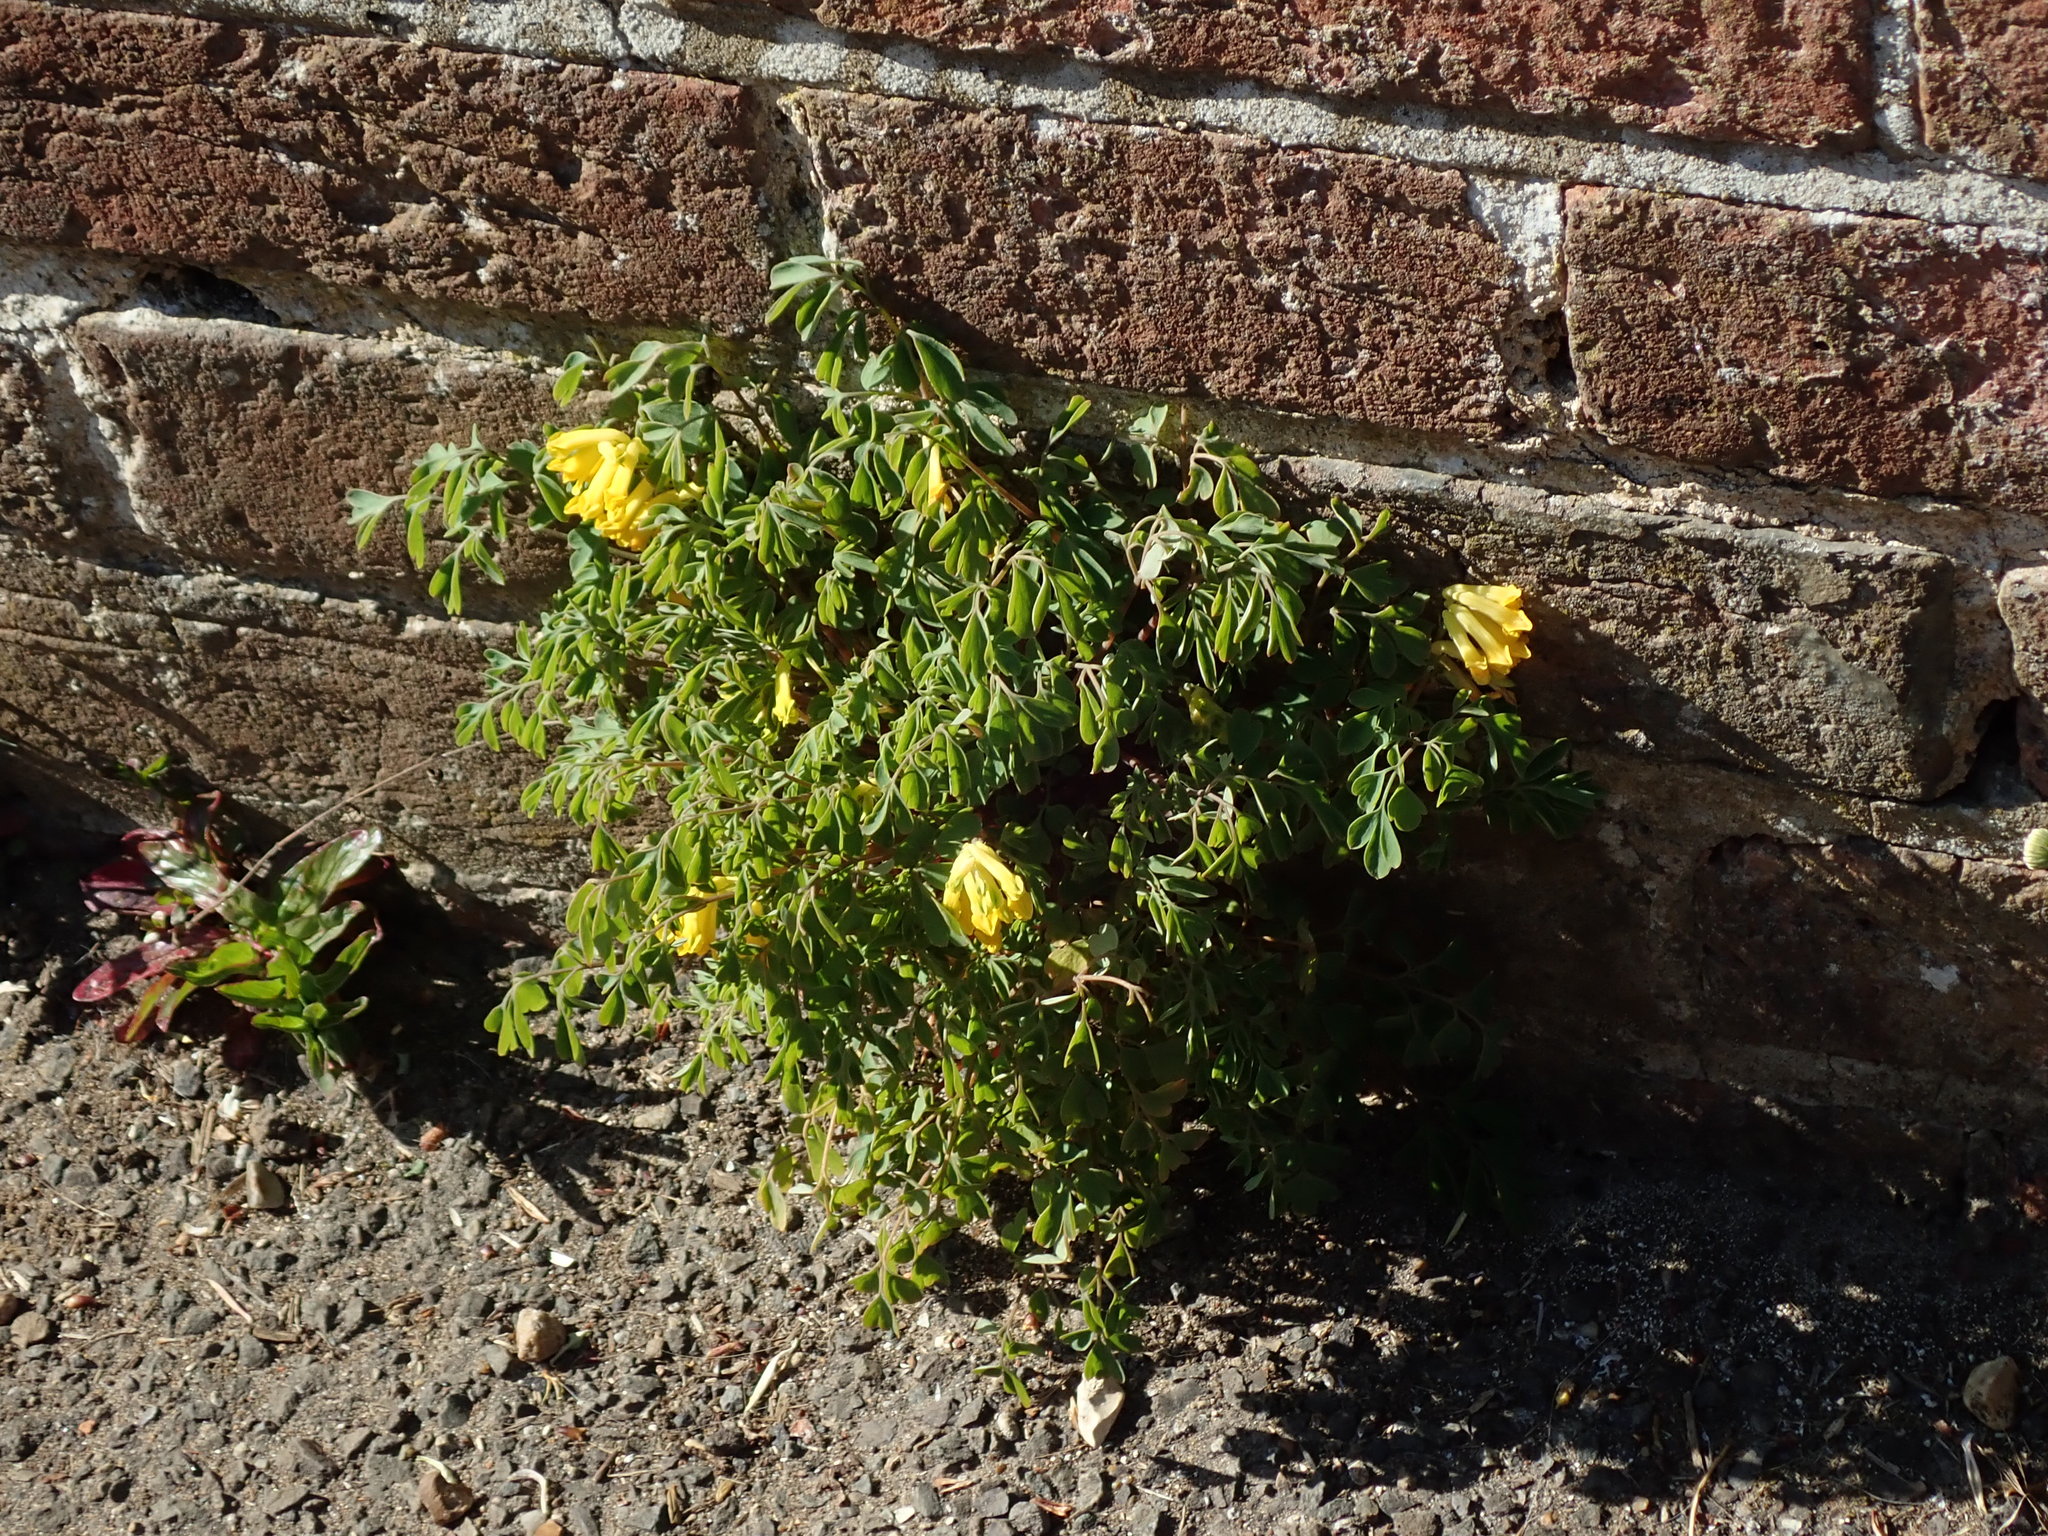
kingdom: Plantae
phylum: Tracheophyta
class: Magnoliopsida
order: Ranunculales
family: Papaveraceae
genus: Pseudofumaria
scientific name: Pseudofumaria lutea
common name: Yellow corydalis
